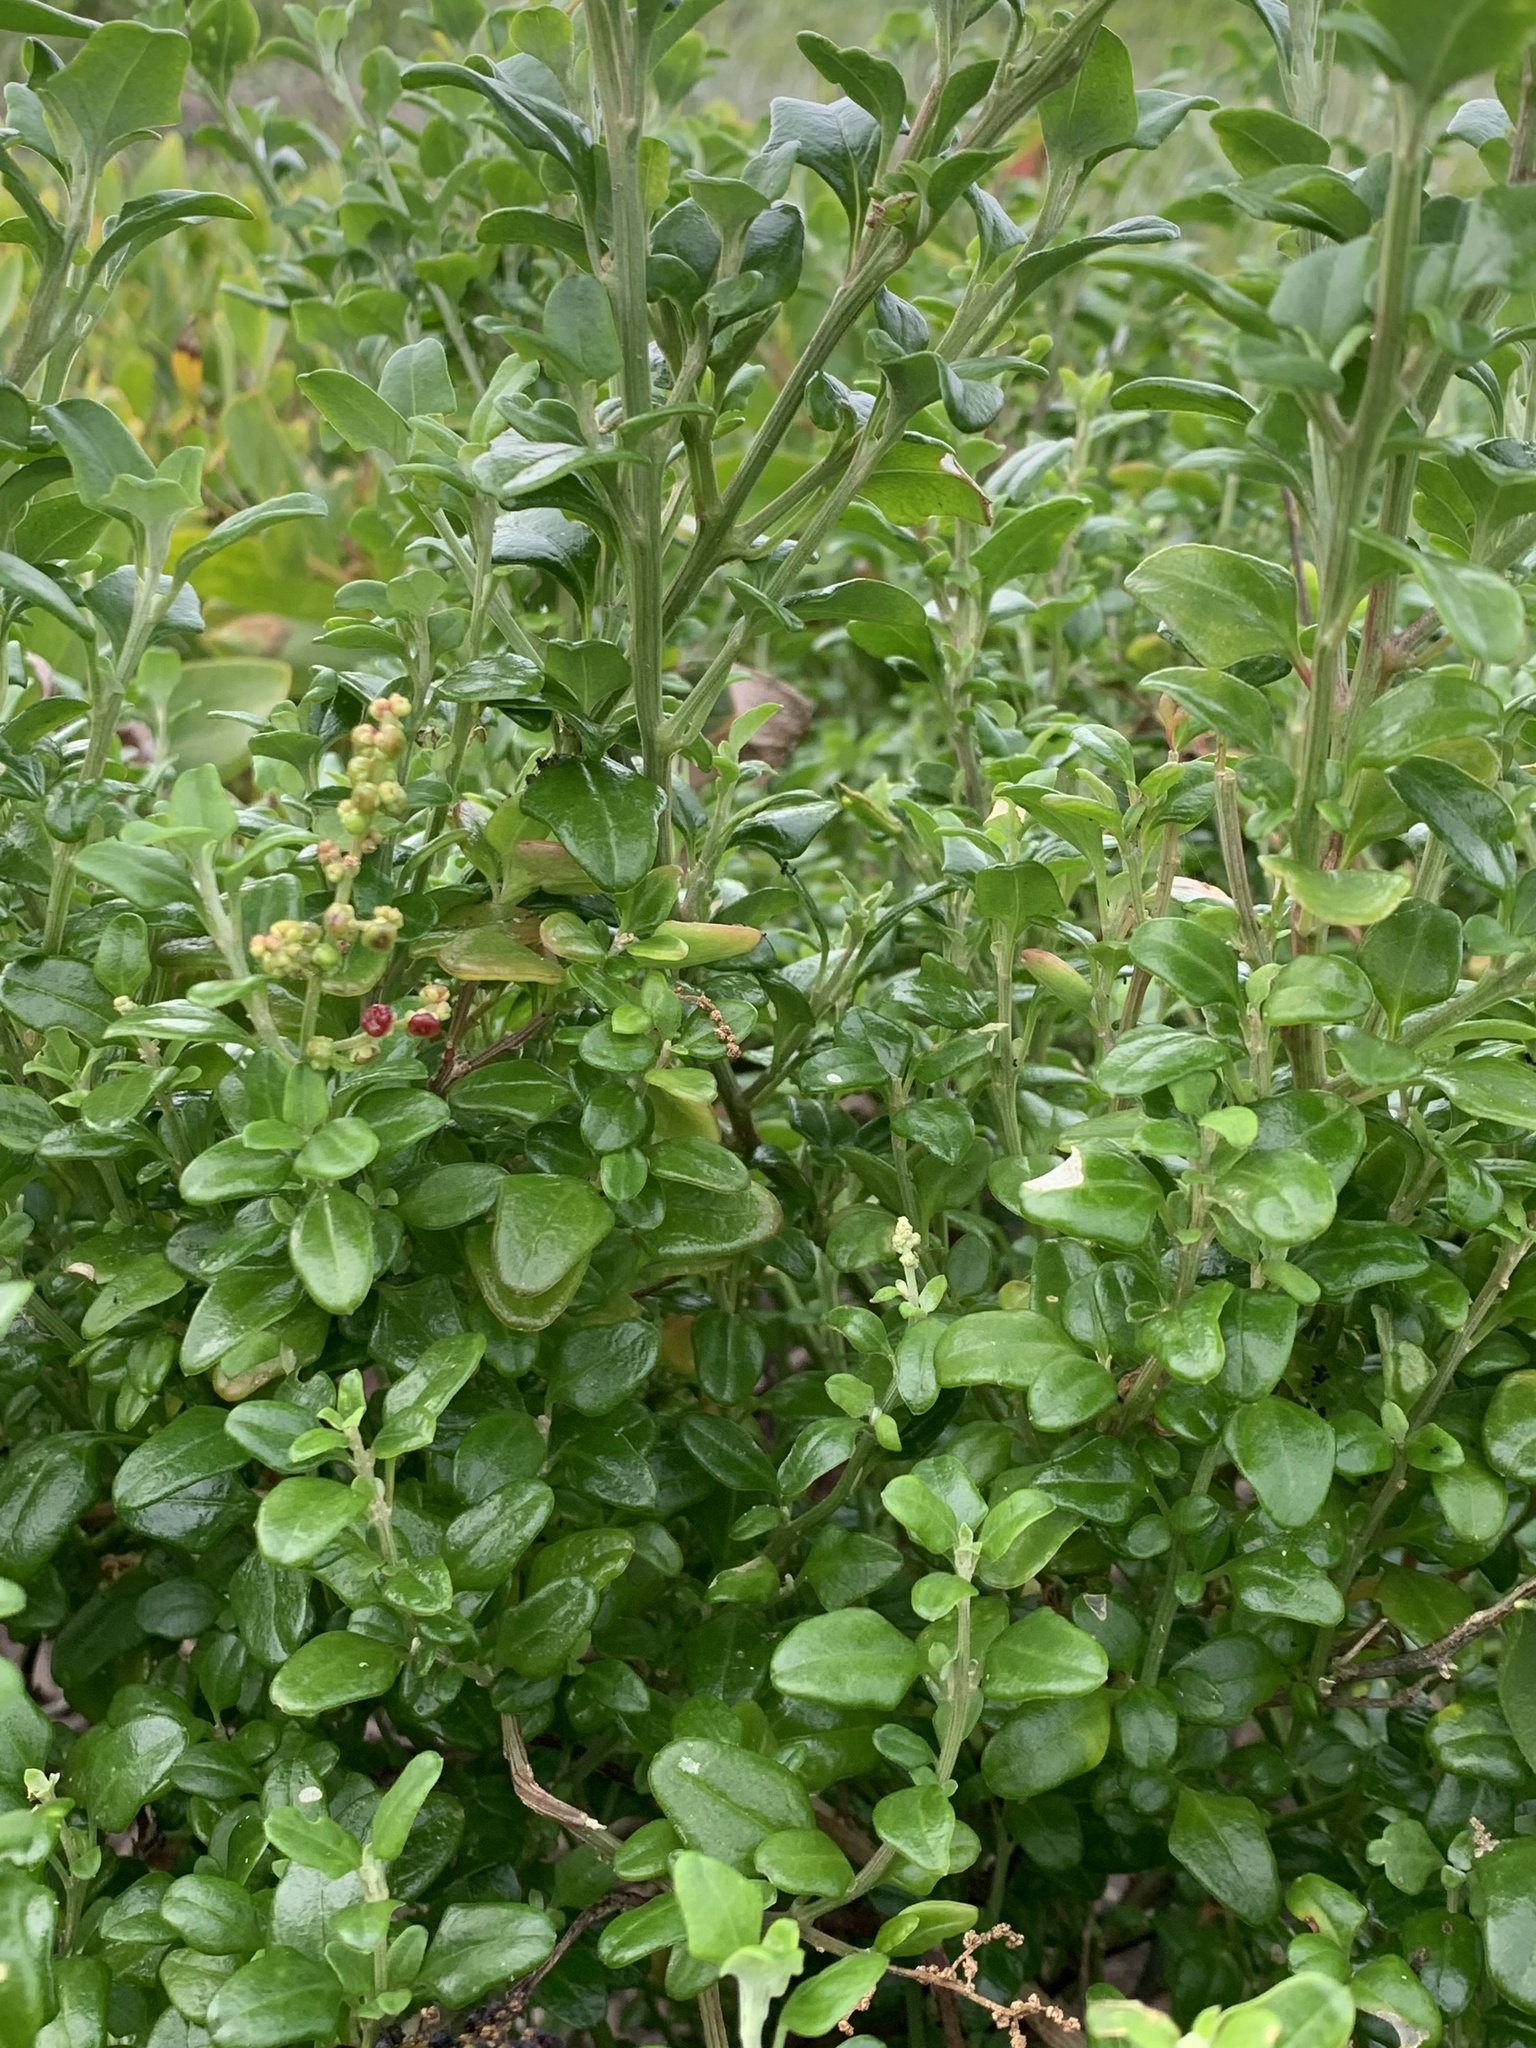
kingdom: Plantae
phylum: Tracheophyta
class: Magnoliopsida
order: Caryophyllales
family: Amaranthaceae
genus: Chenopodium
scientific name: Chenopodium candolleanum
